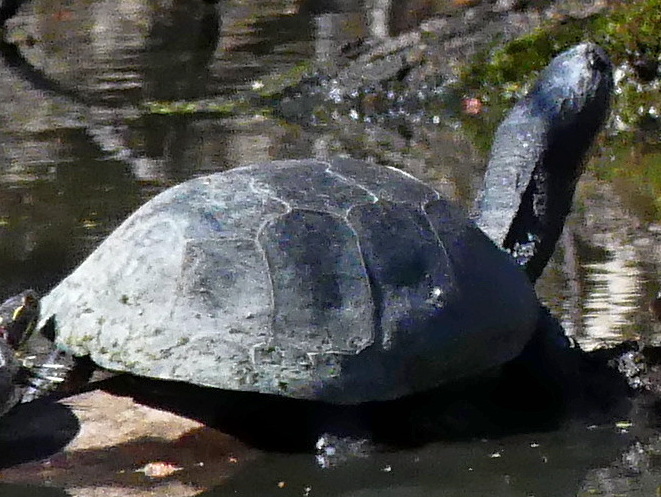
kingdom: Animalia
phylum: Chordata
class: Testudines
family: Emydidae
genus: Emys
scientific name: Emys blandingii
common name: Blanding's turtle
